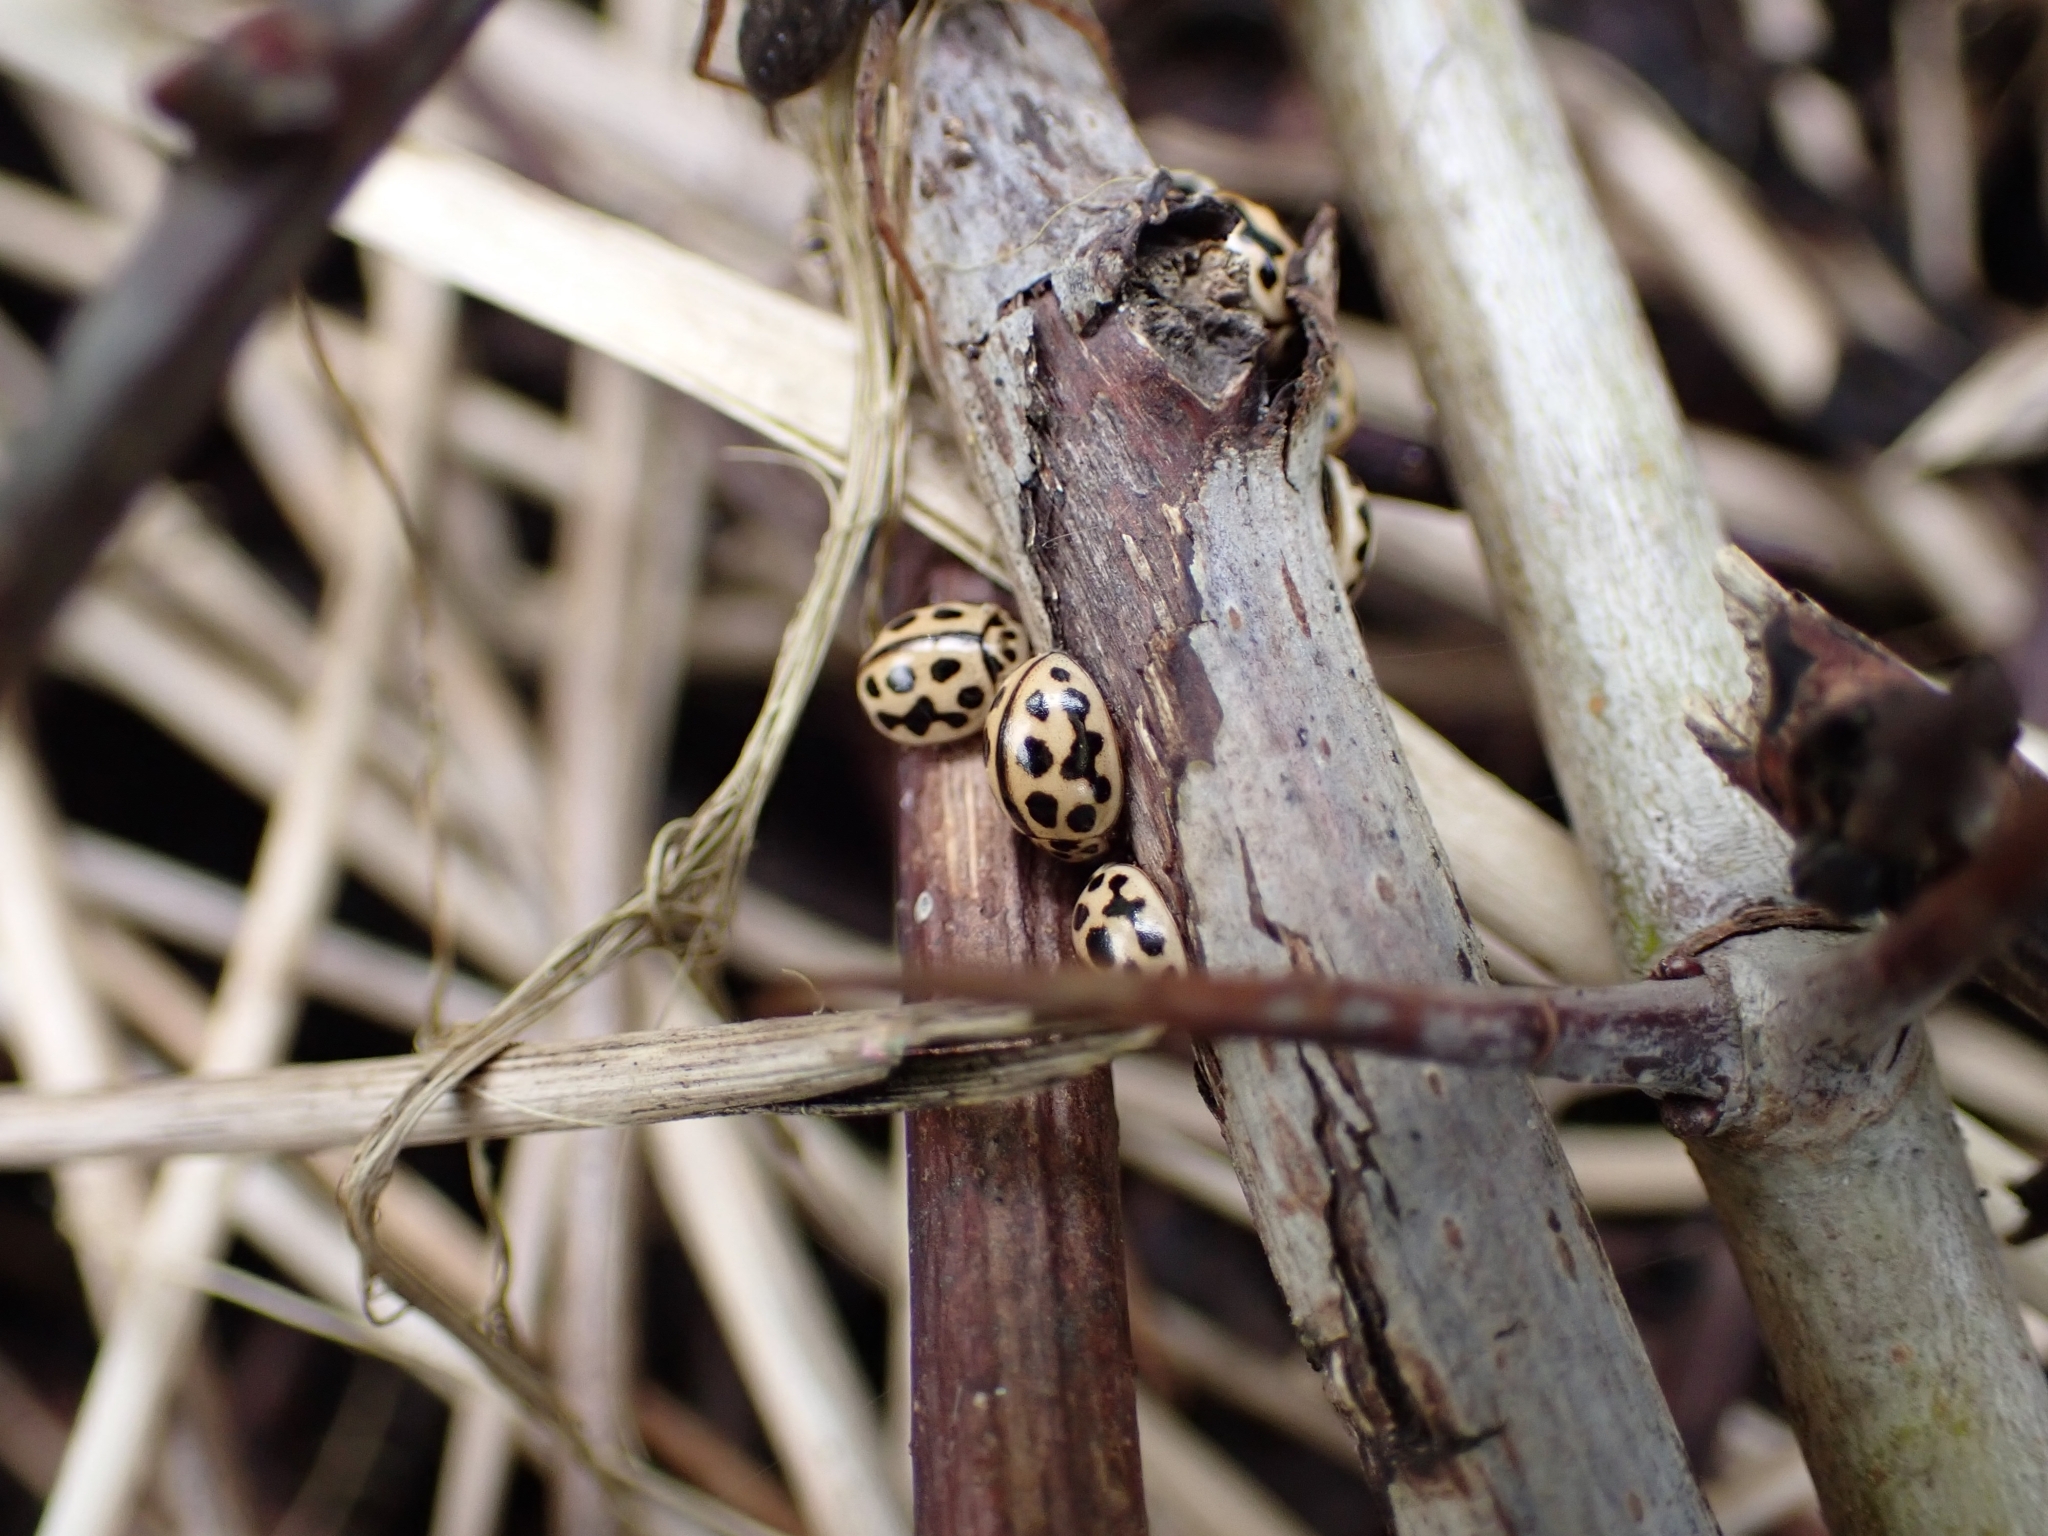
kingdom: Animalia
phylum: Arthropoda
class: Insecta
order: Coleoptera
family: Coccinellidae
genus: Tytthaspis
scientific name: Tytthaspis sedecimpunctata
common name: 16-spot ladybird
